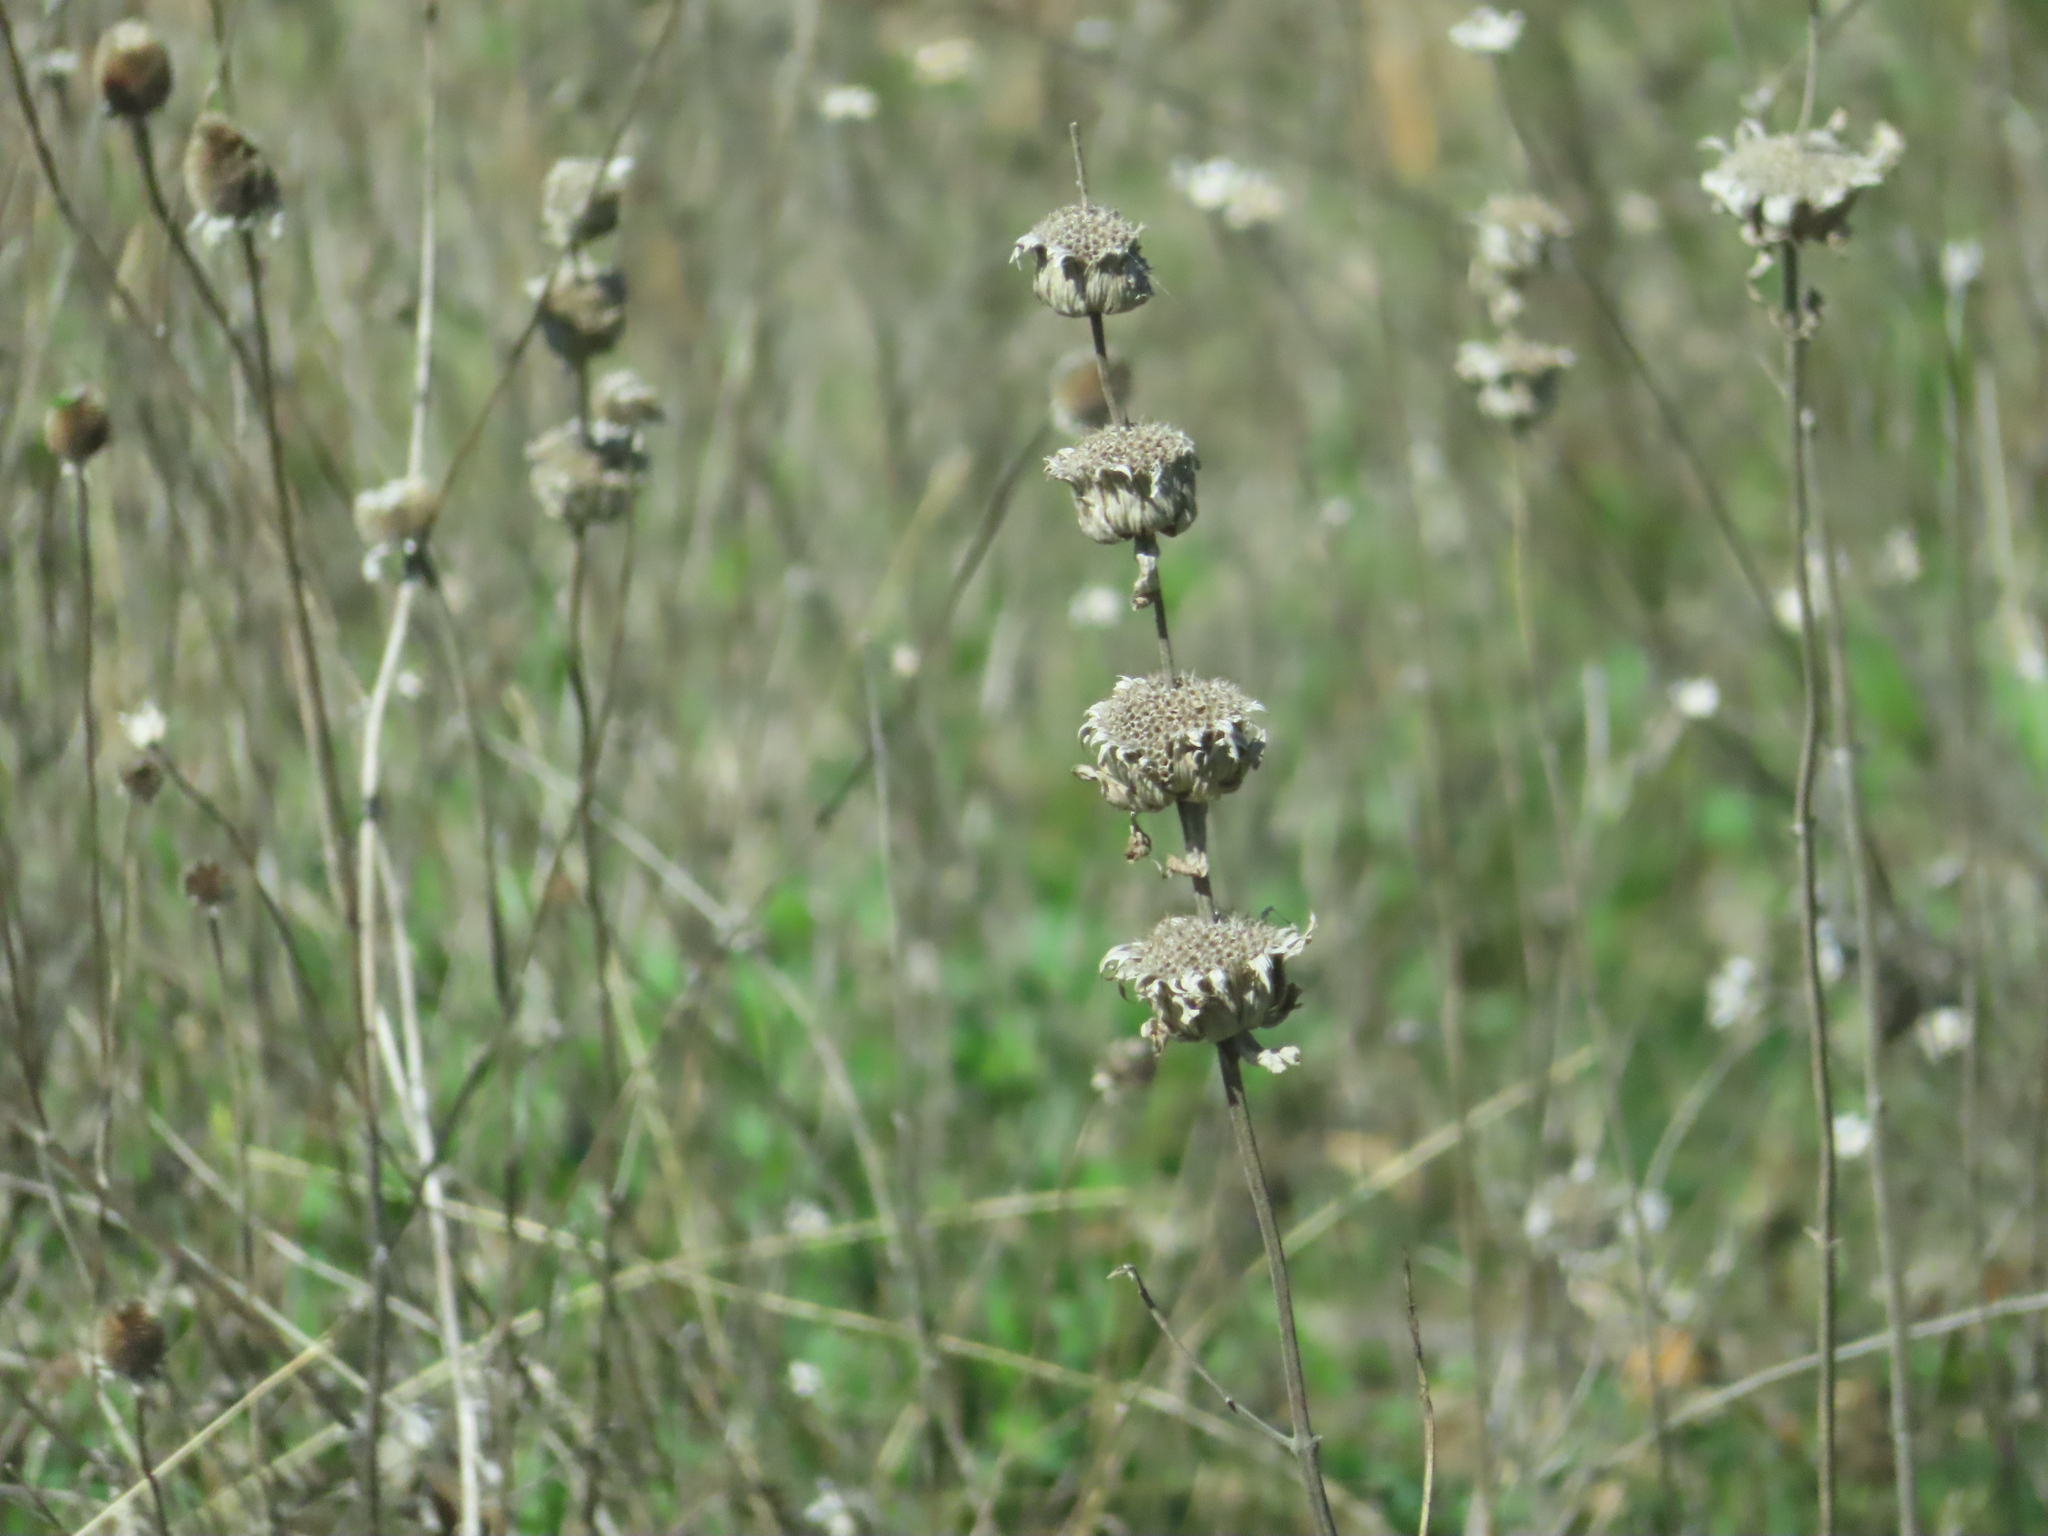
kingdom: Plantae
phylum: Tracheophyta
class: Magnoliopsida
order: Lamiales
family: Lamiaceae
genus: Monarda
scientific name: Monarda citriodora
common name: Lemon beebalm
